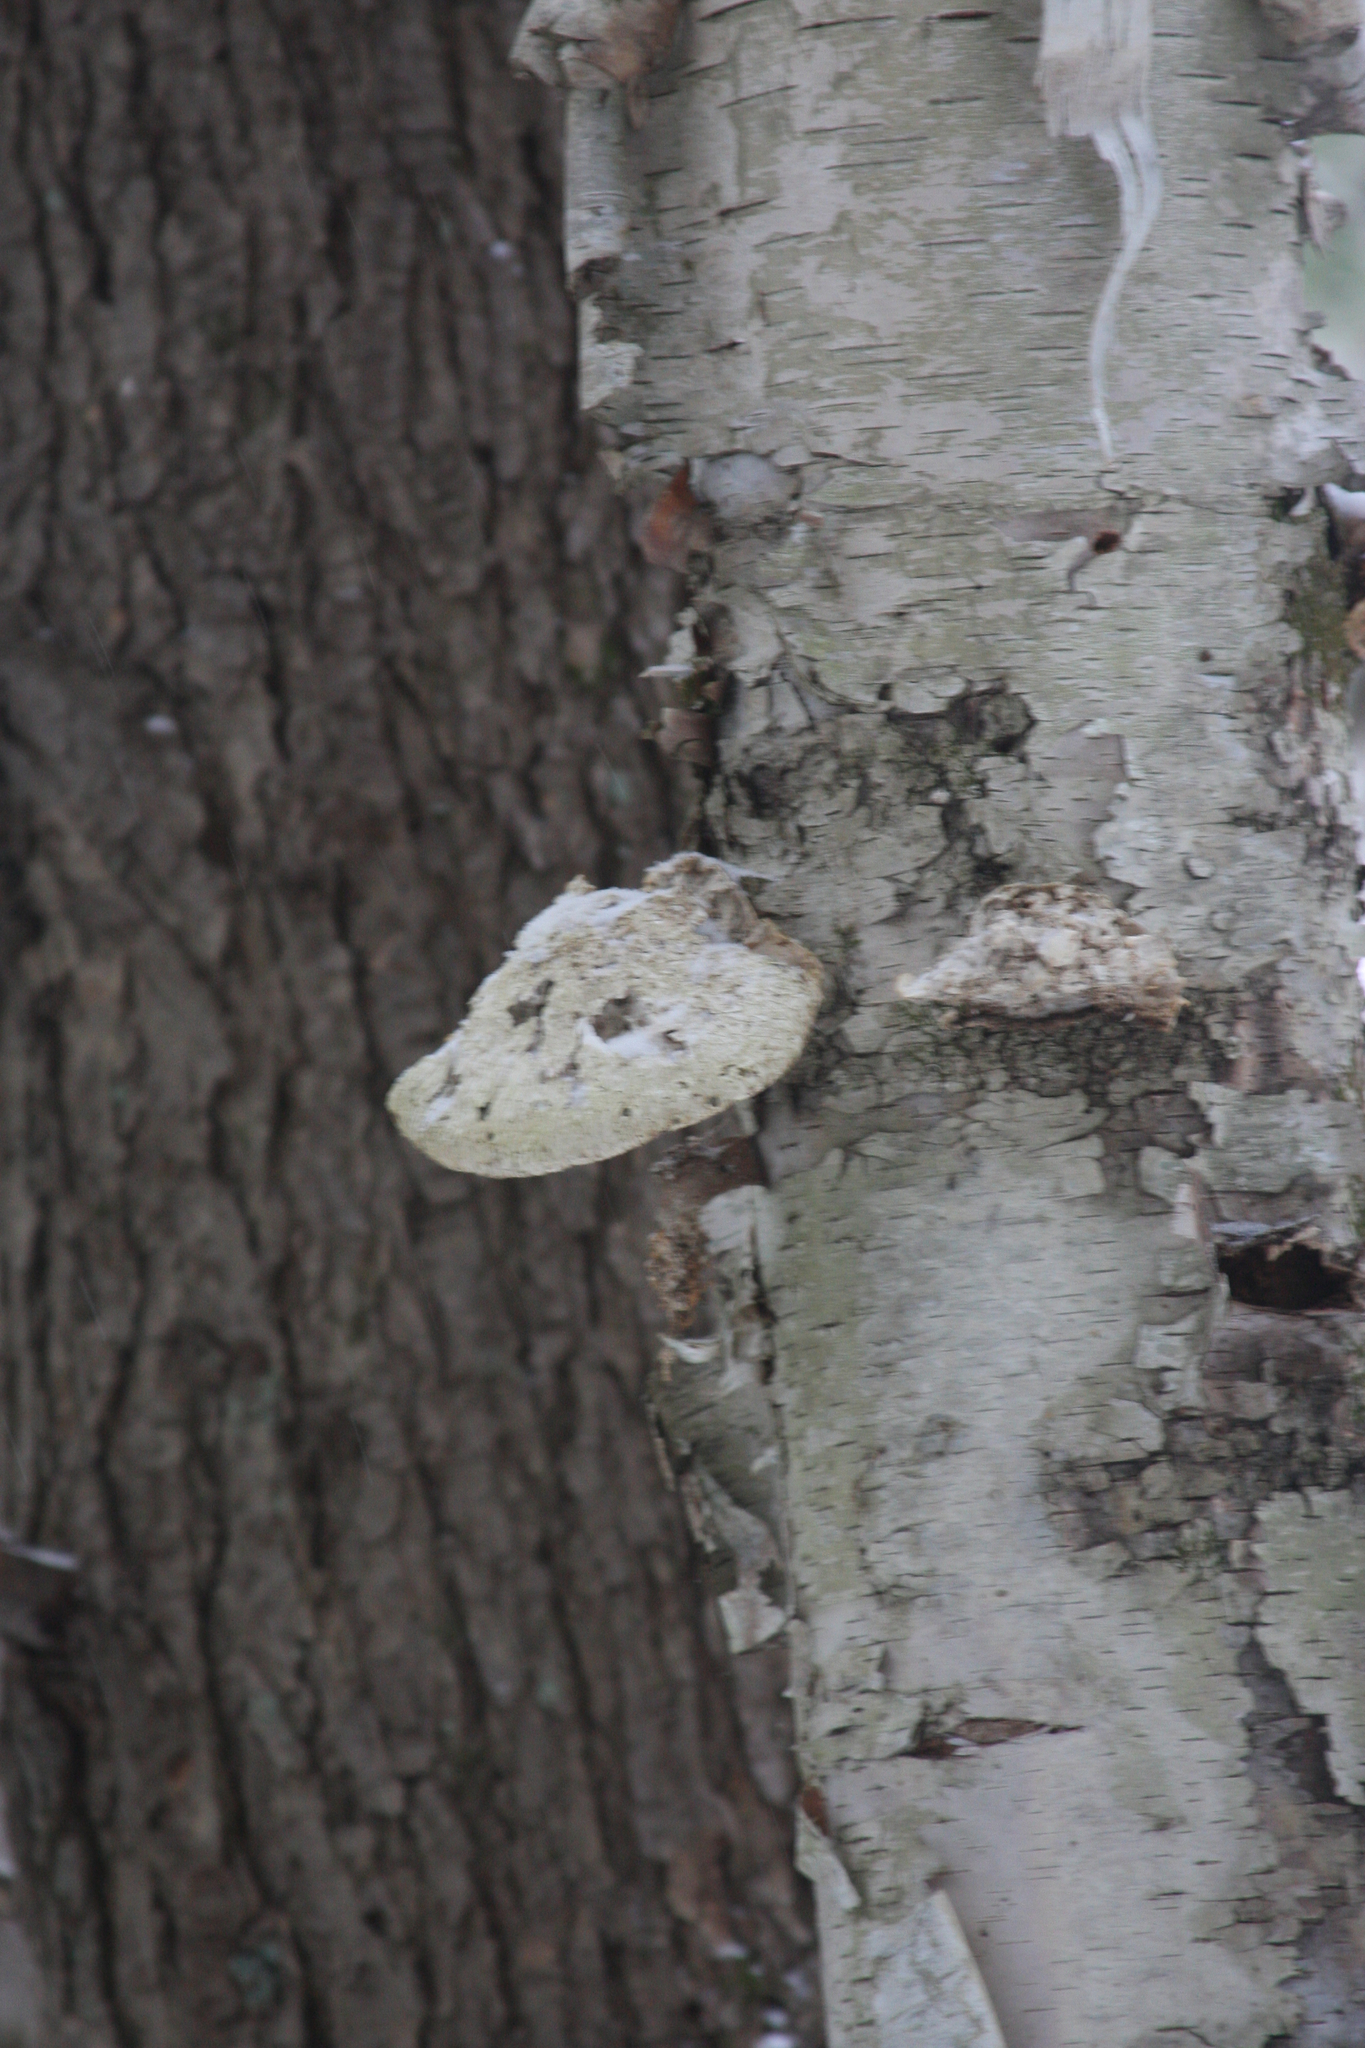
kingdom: Fungi
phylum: Basidiomycota
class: Agaricomycetes
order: Polyporales
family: Fomitopsidaceae
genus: Fomitopsis
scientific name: Fomitopsis betulina
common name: Birch polypore
